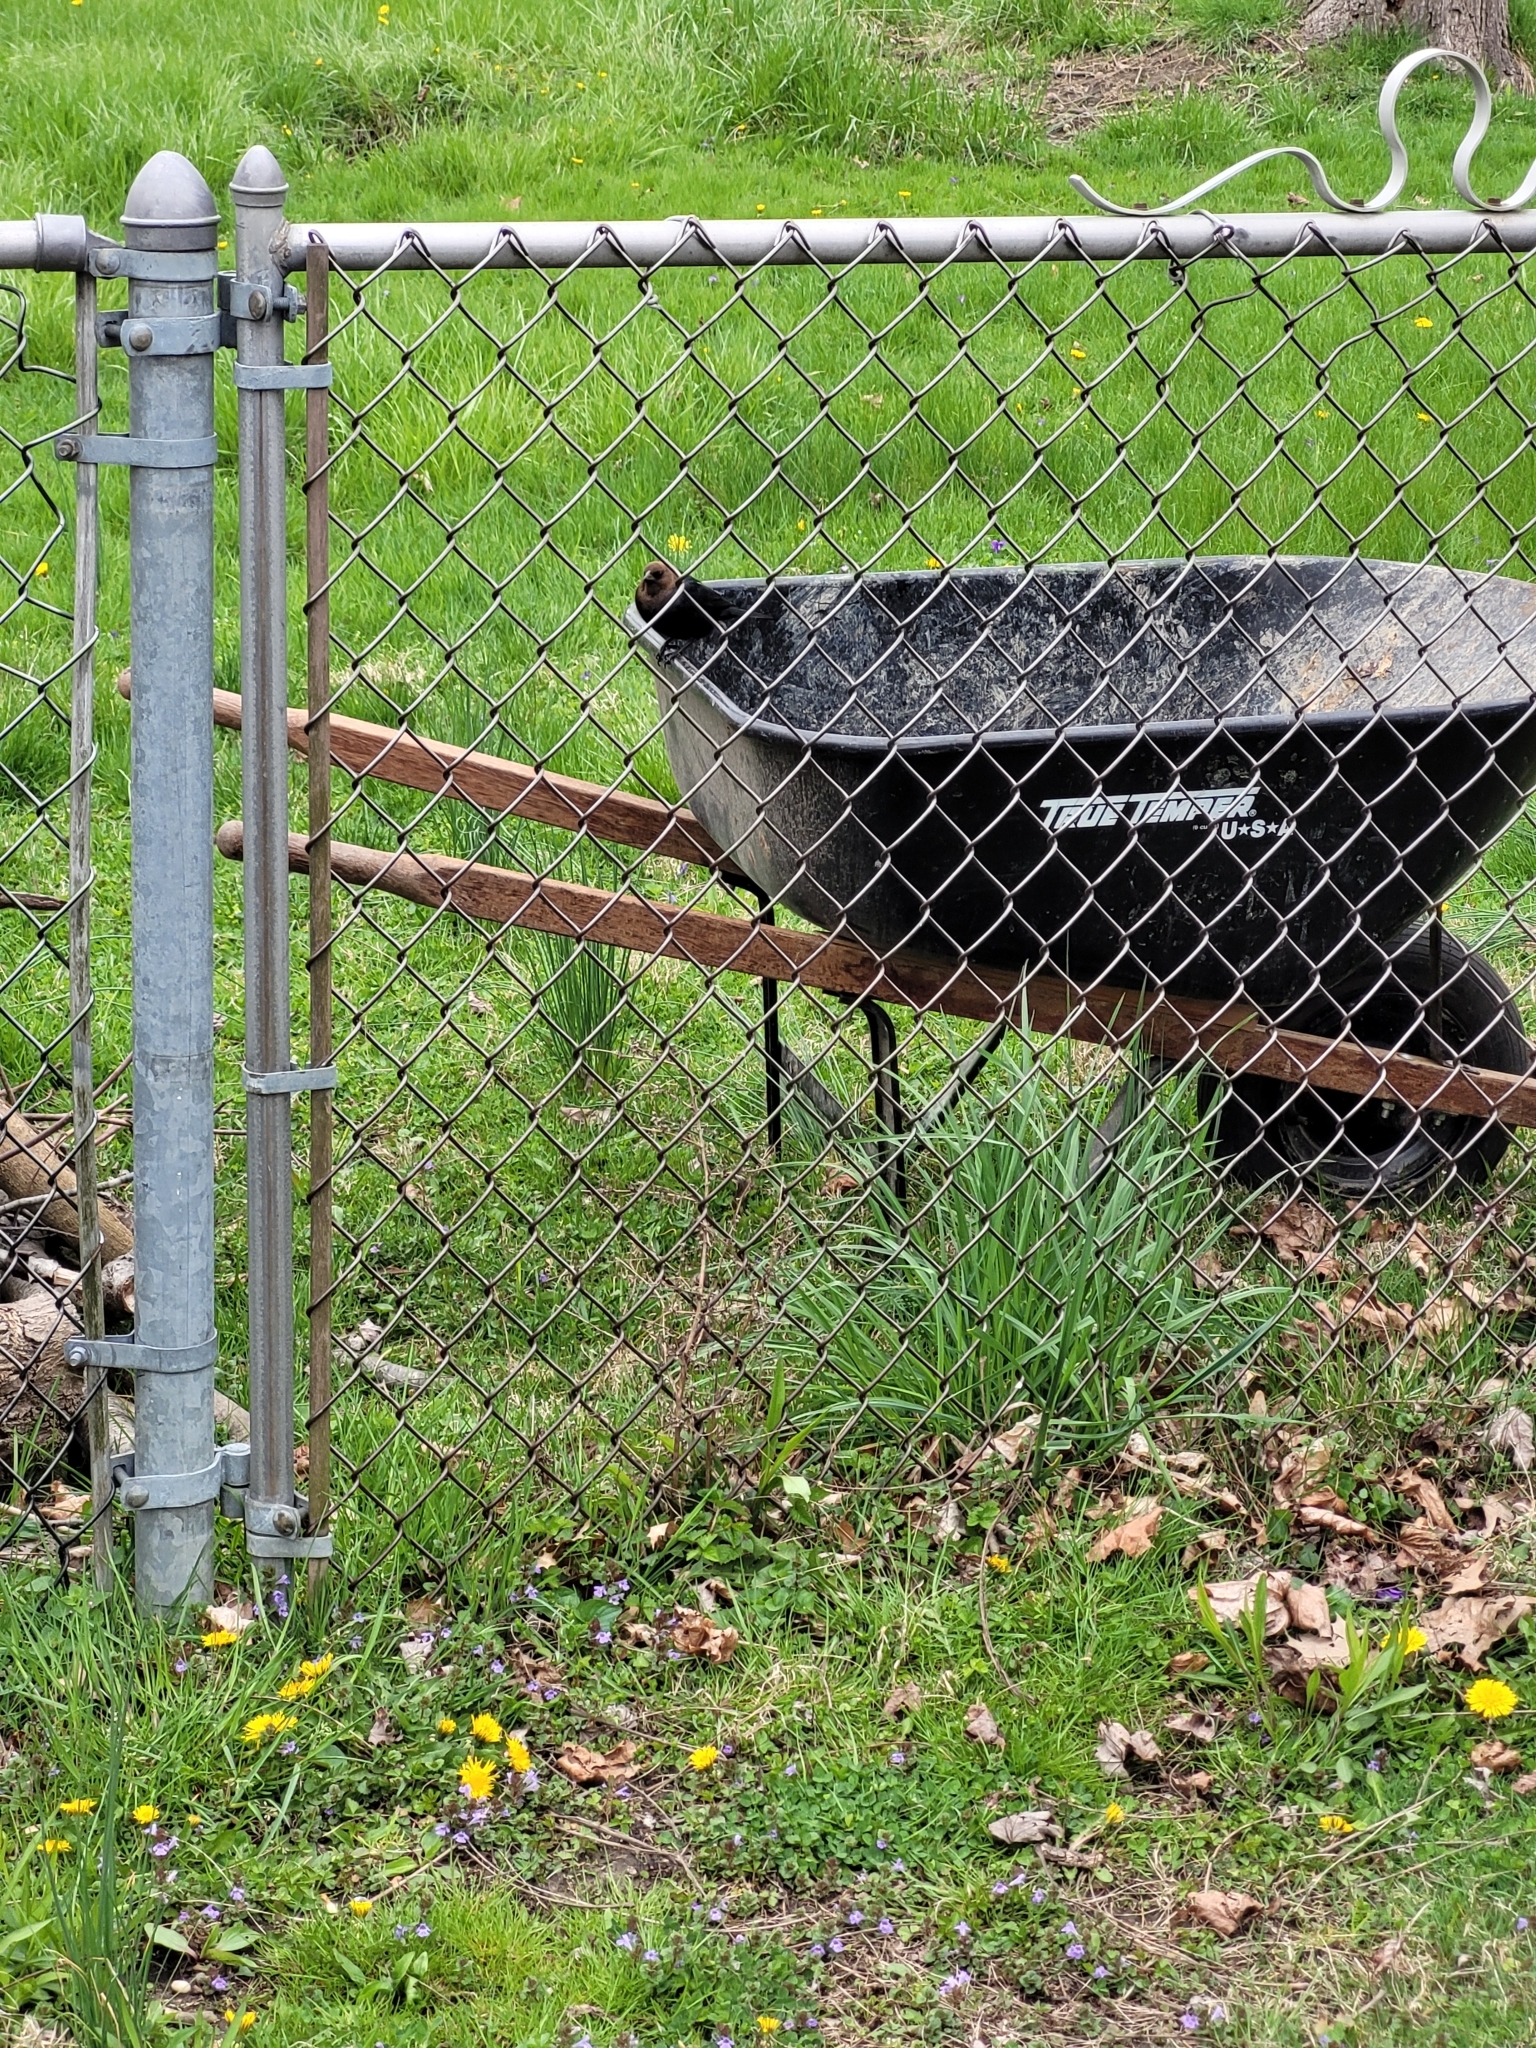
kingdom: Animalia
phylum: Chordata
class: Aves
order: Passeriformes
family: Icteridae
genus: Molothrus
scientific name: Molothrus ater
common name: Brown-headed cowbird
